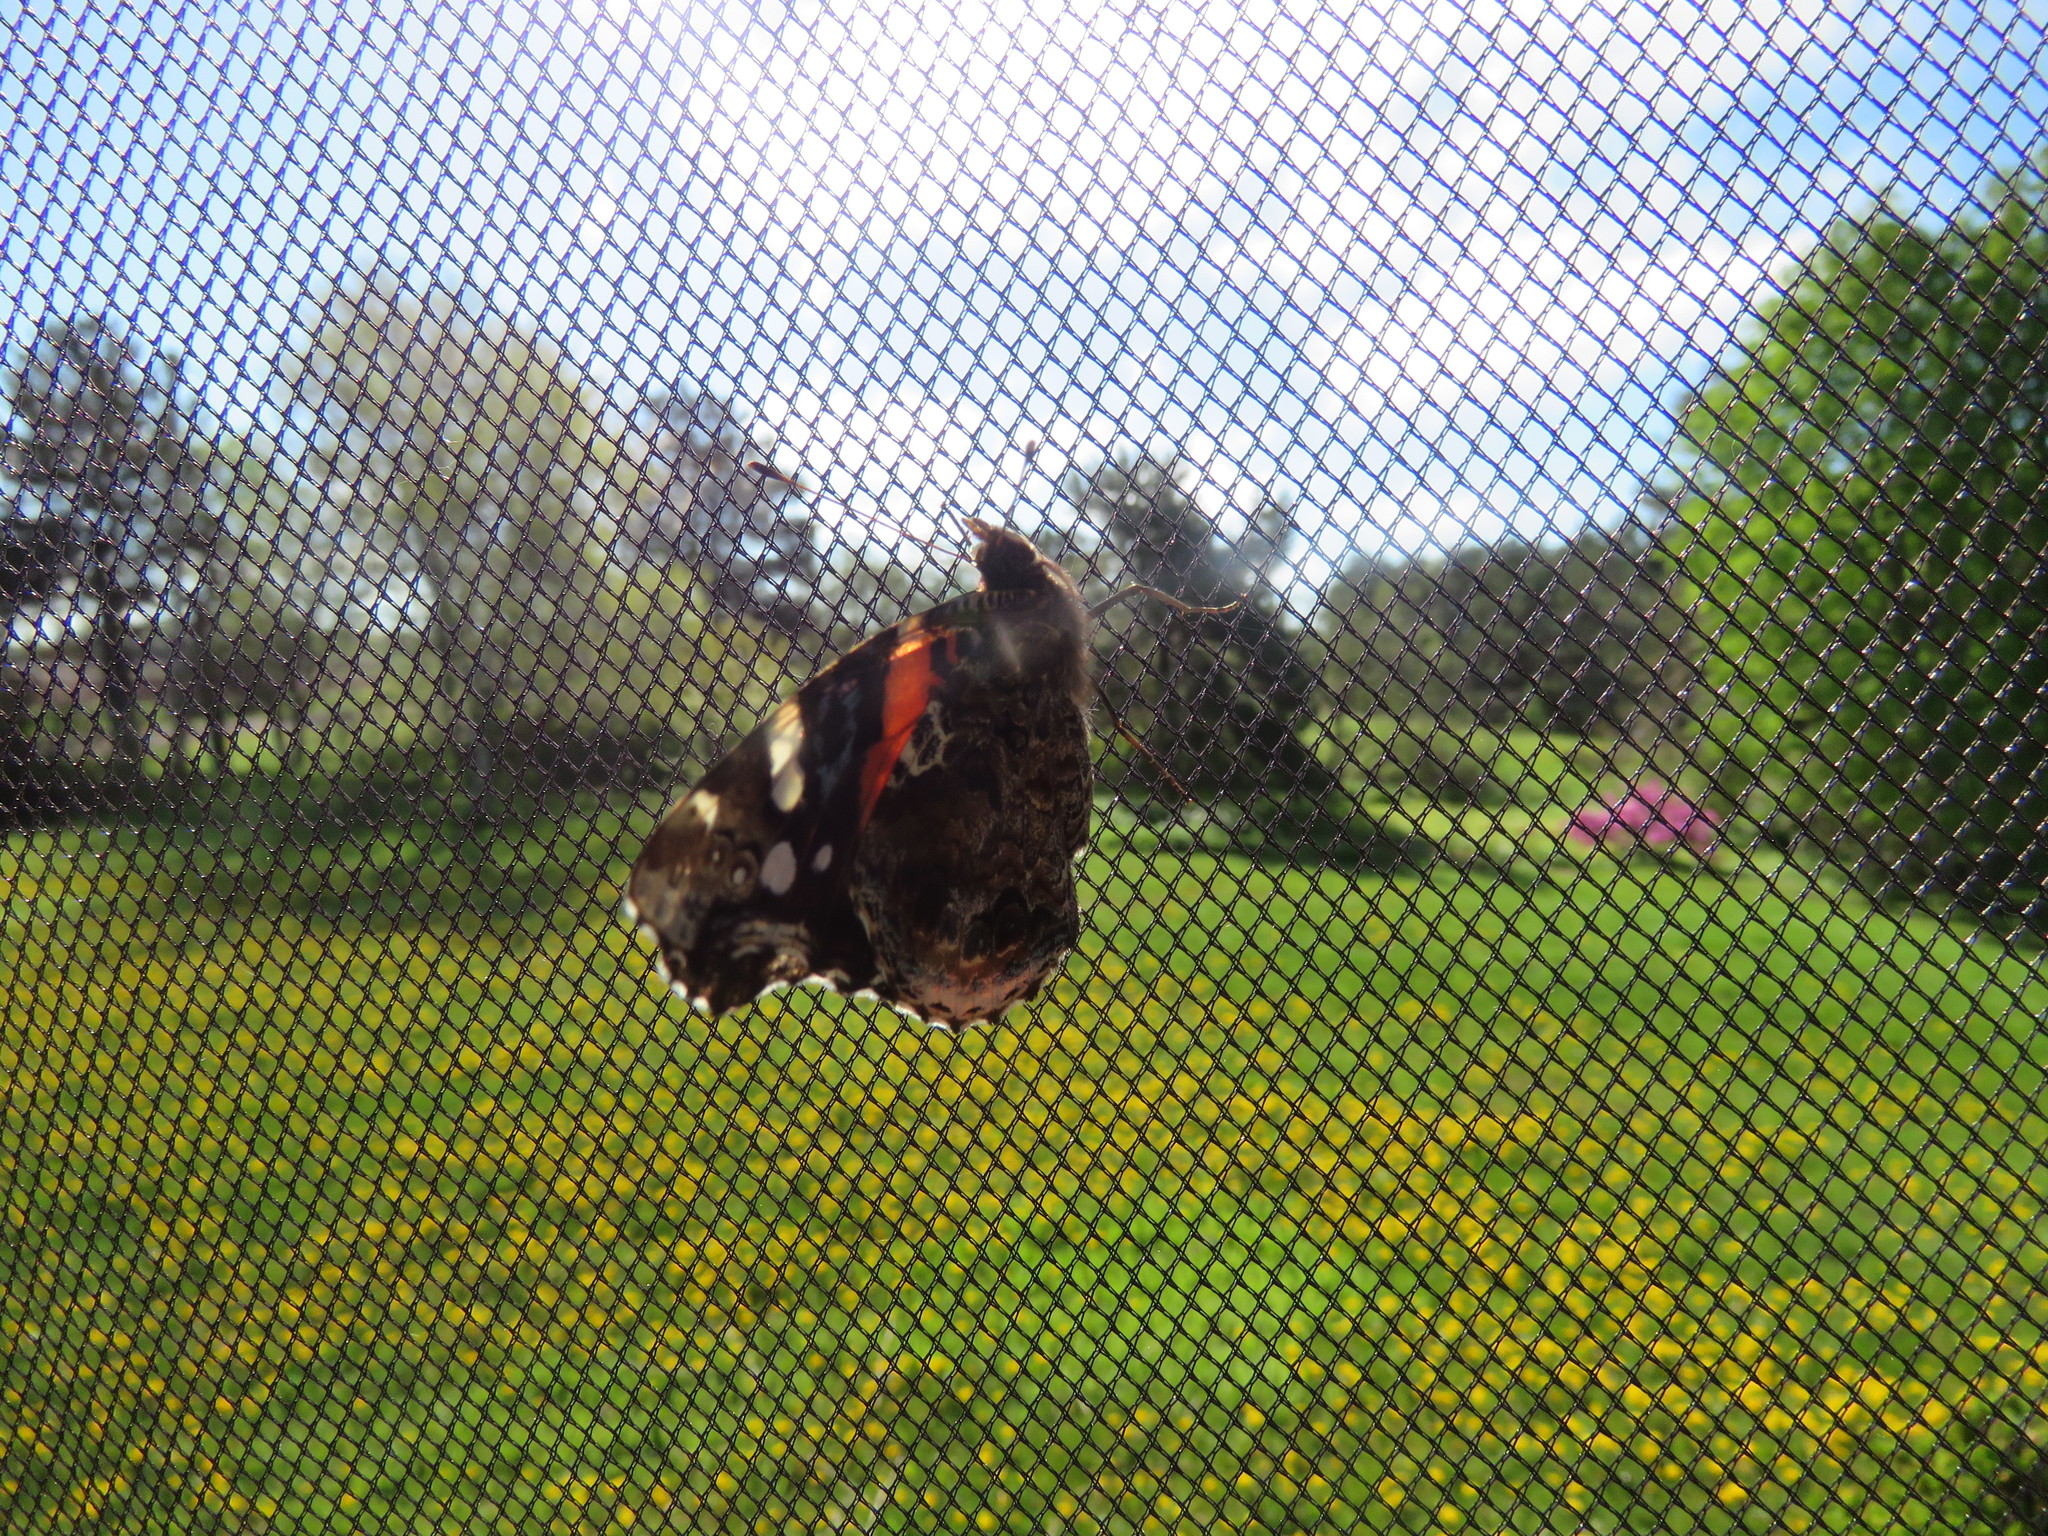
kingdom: Animalia
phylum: Arthropoda
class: Insecta
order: Lepidoptera
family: Nymphalidae
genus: Vanessa
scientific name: Vanessa atalanta
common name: Red admiral
